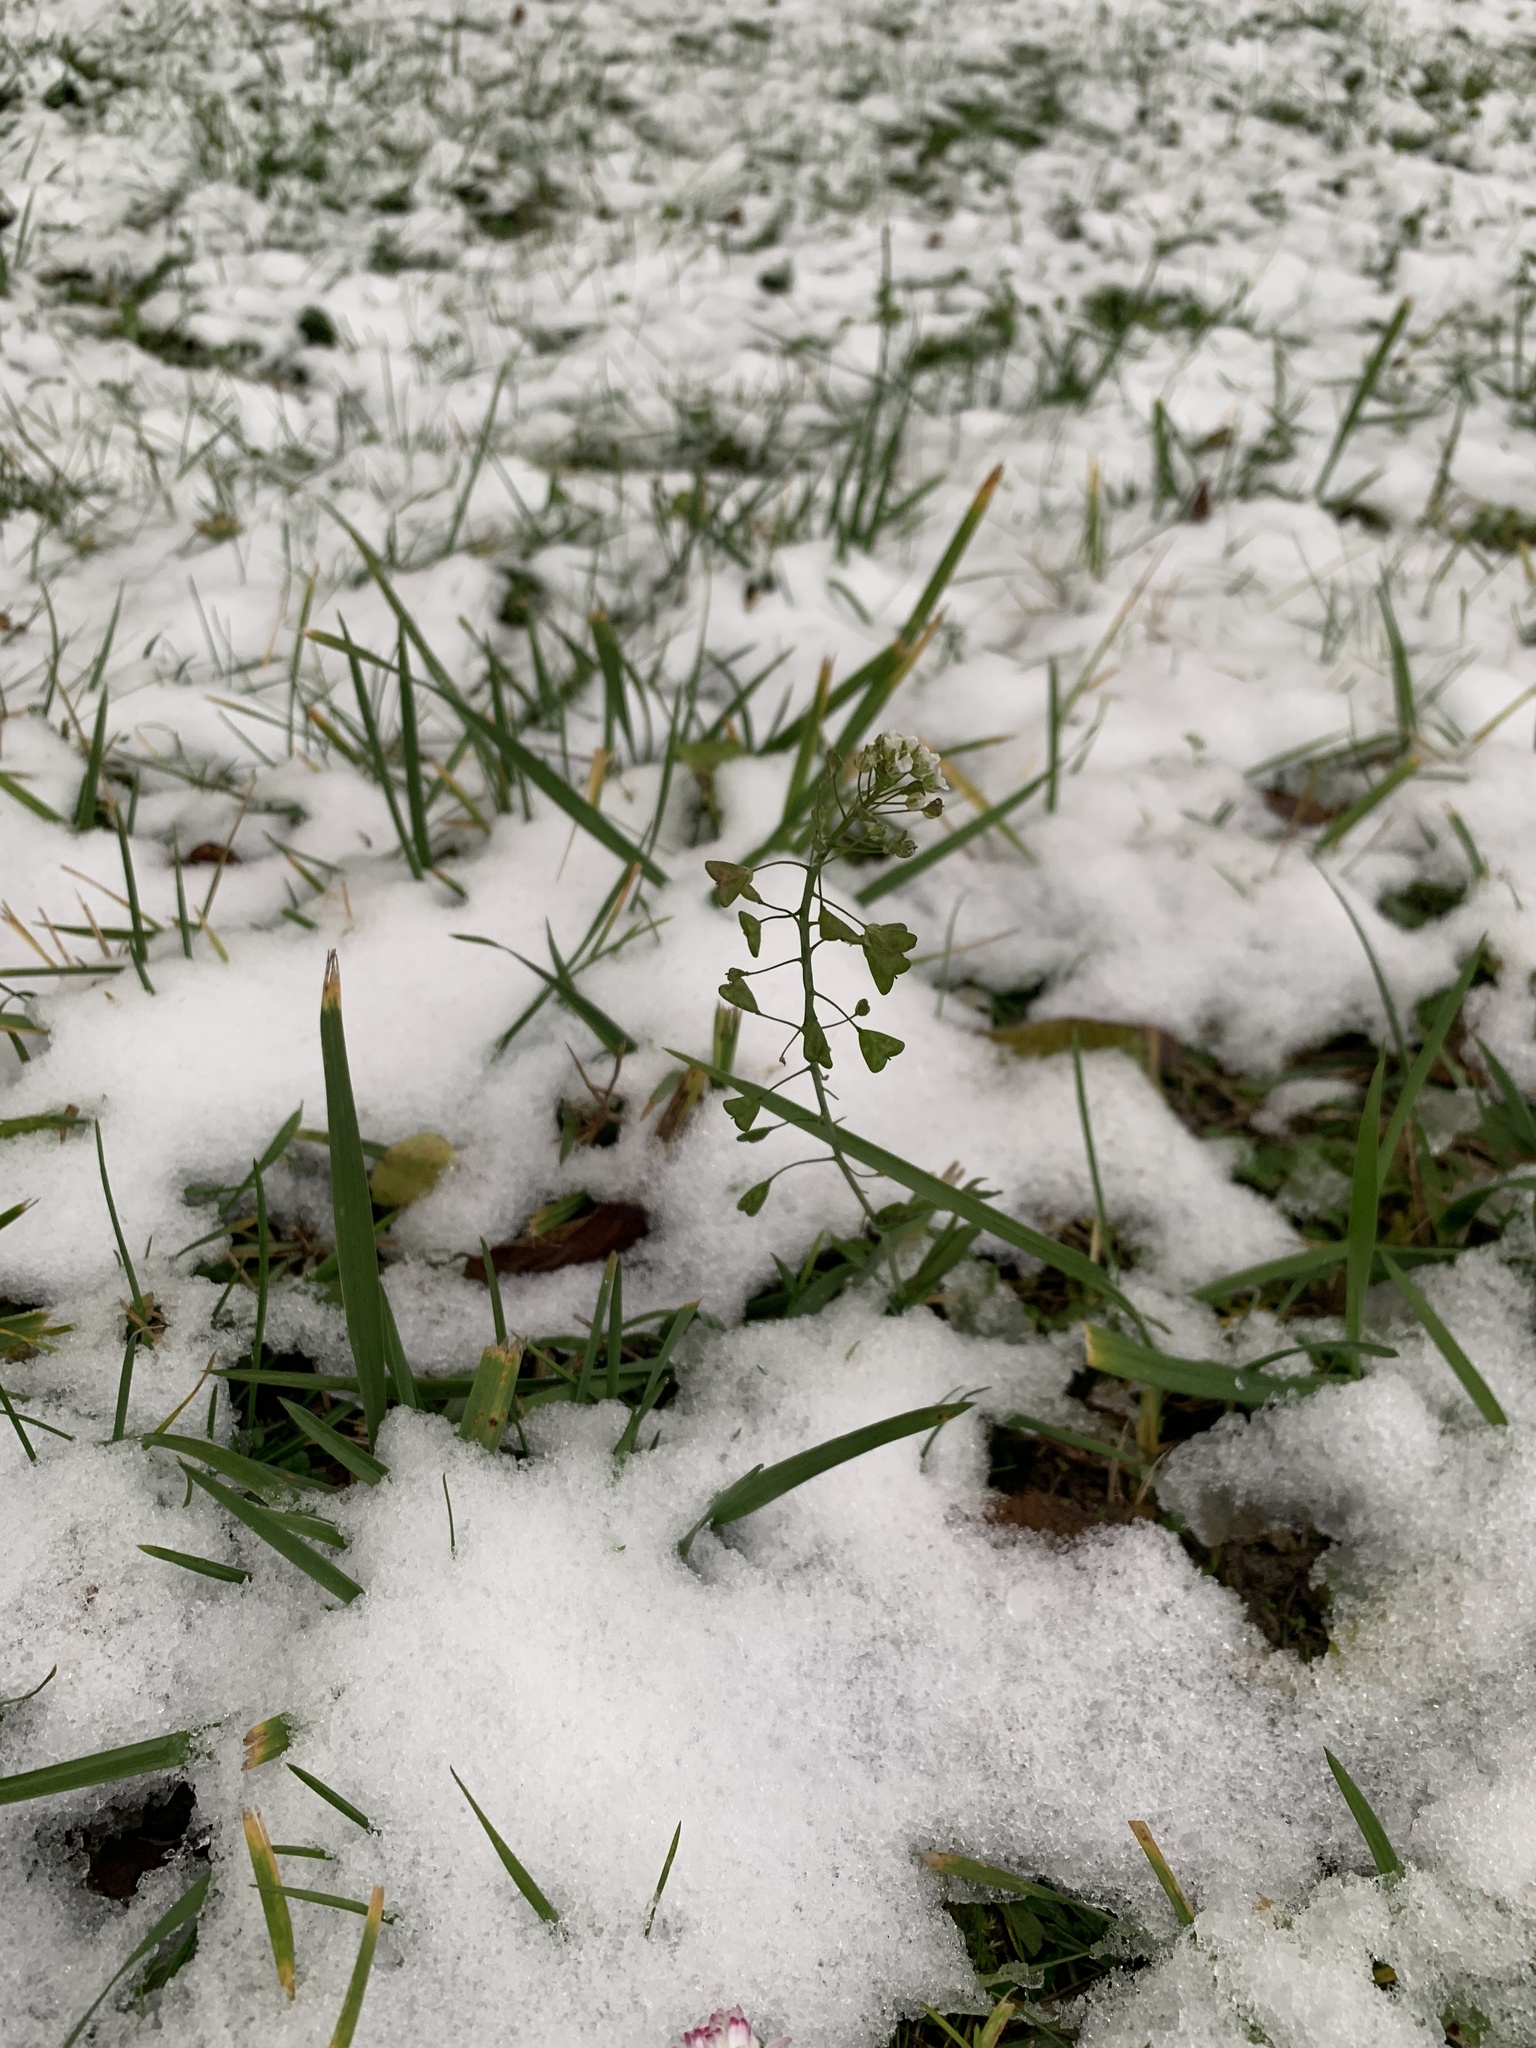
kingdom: Plantae
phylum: Tracheophyta
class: Magnoliopsida
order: Brassicales
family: Brassicaceae
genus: Capsella
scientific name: Capsella bursa-pastoris
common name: Shepherd's purse
